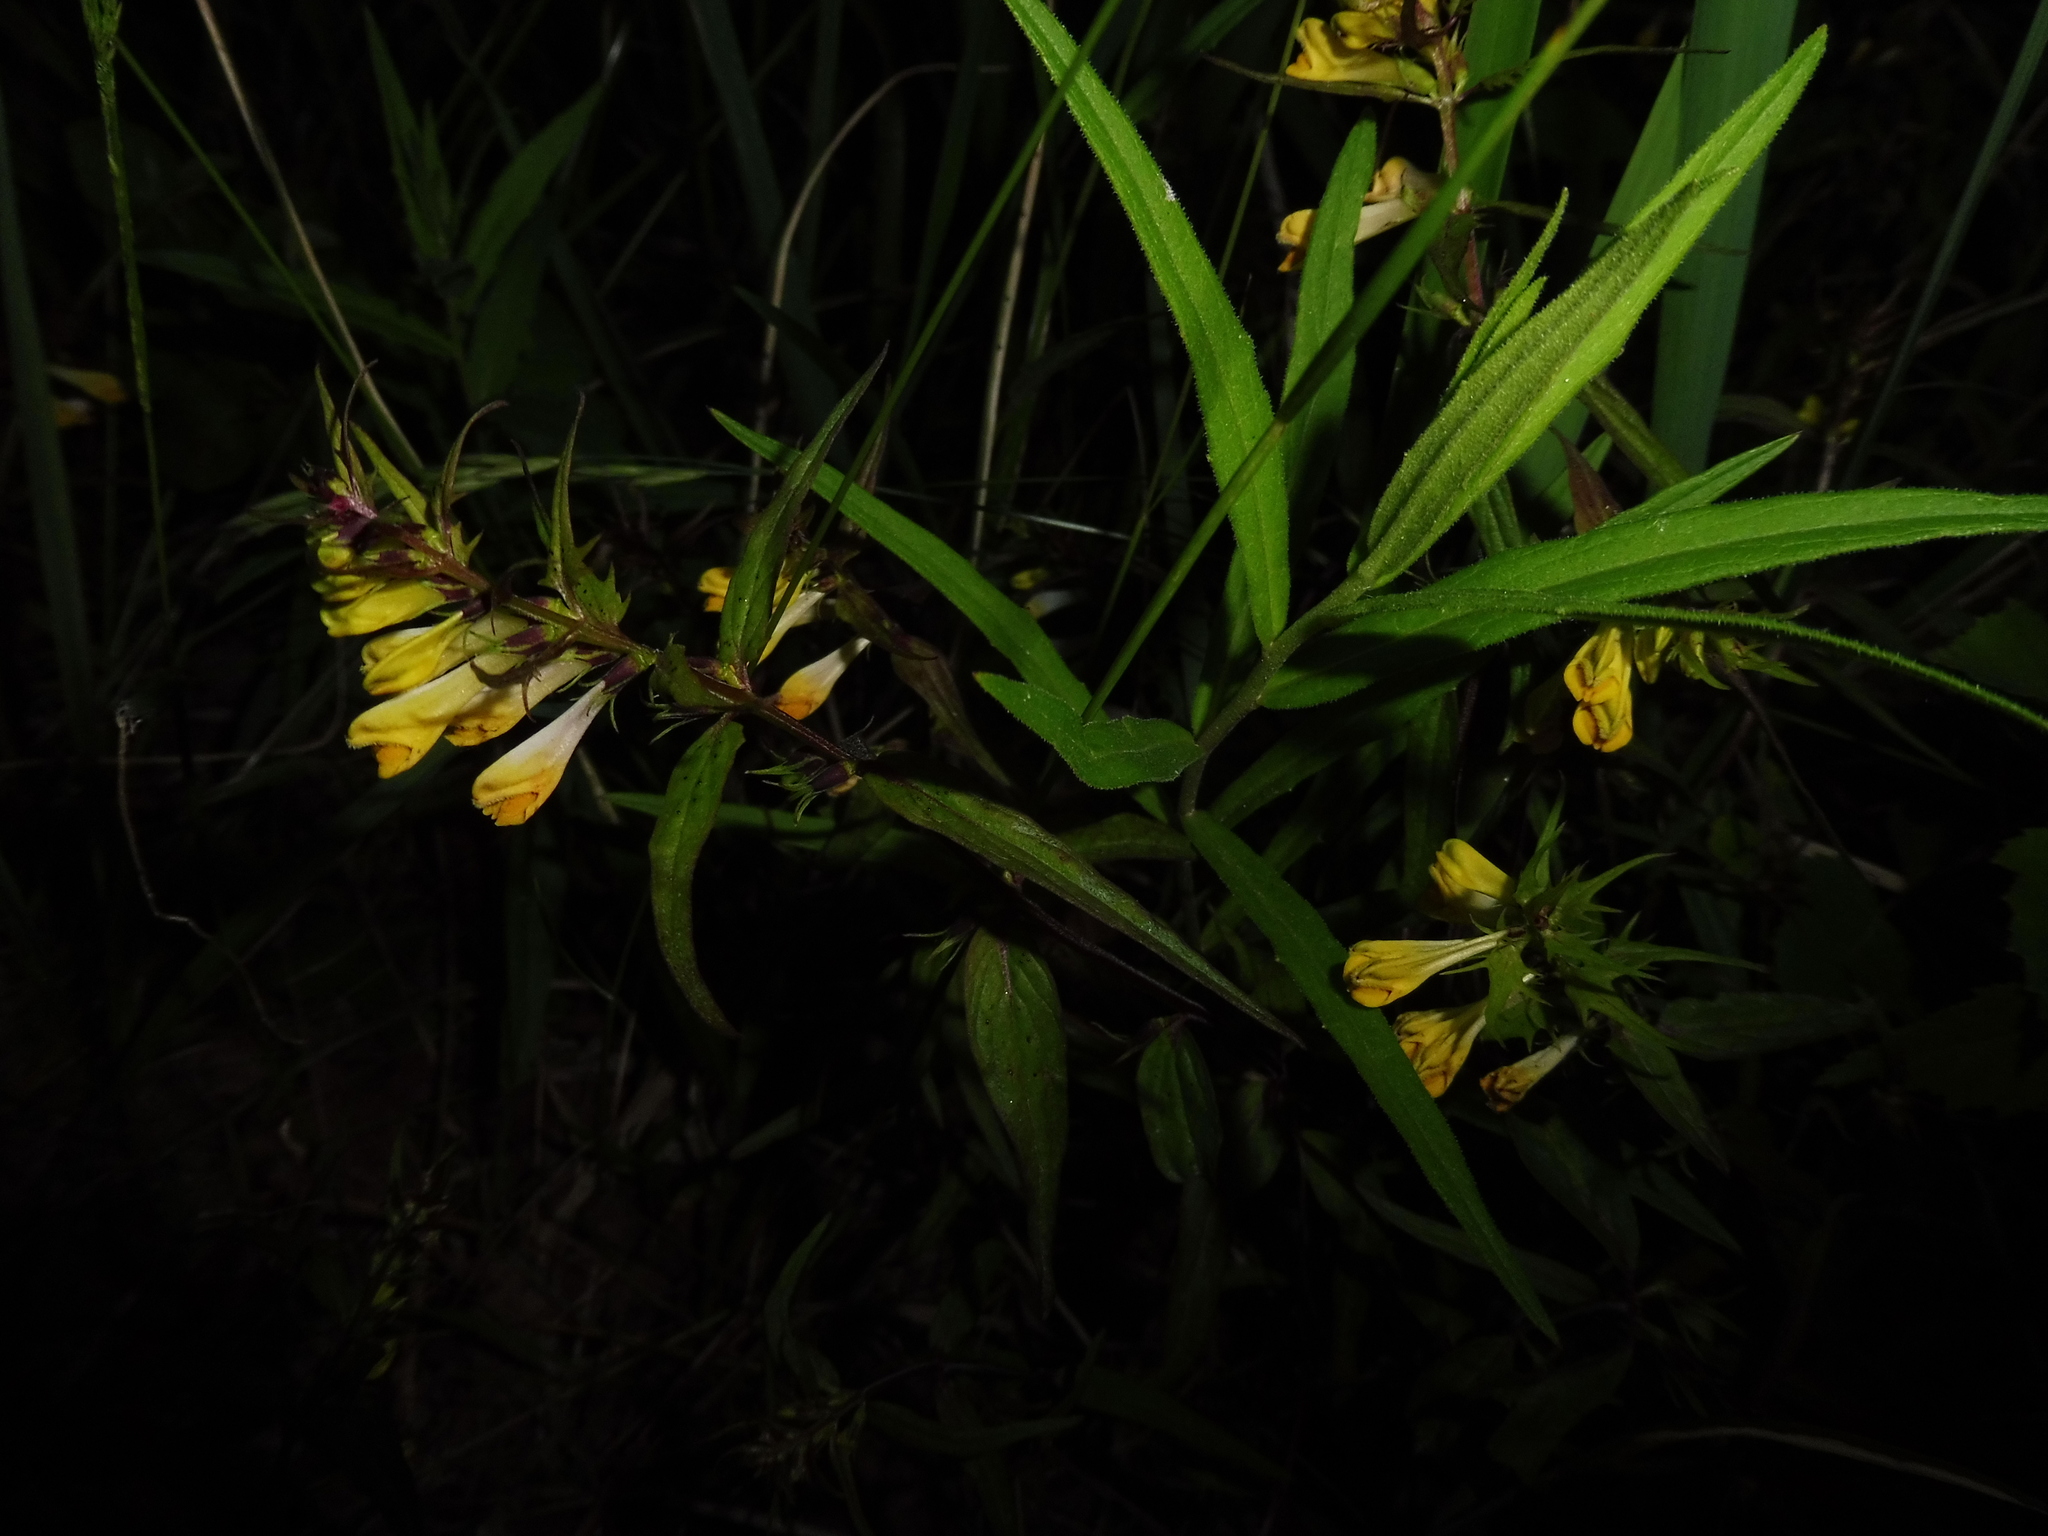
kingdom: Plantae
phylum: Tracheophyta
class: Magnoliopsida
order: Lamiales
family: Orobanchaceae
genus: Melampyrum
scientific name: Melampyrum pratense
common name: Common cow-wheat
